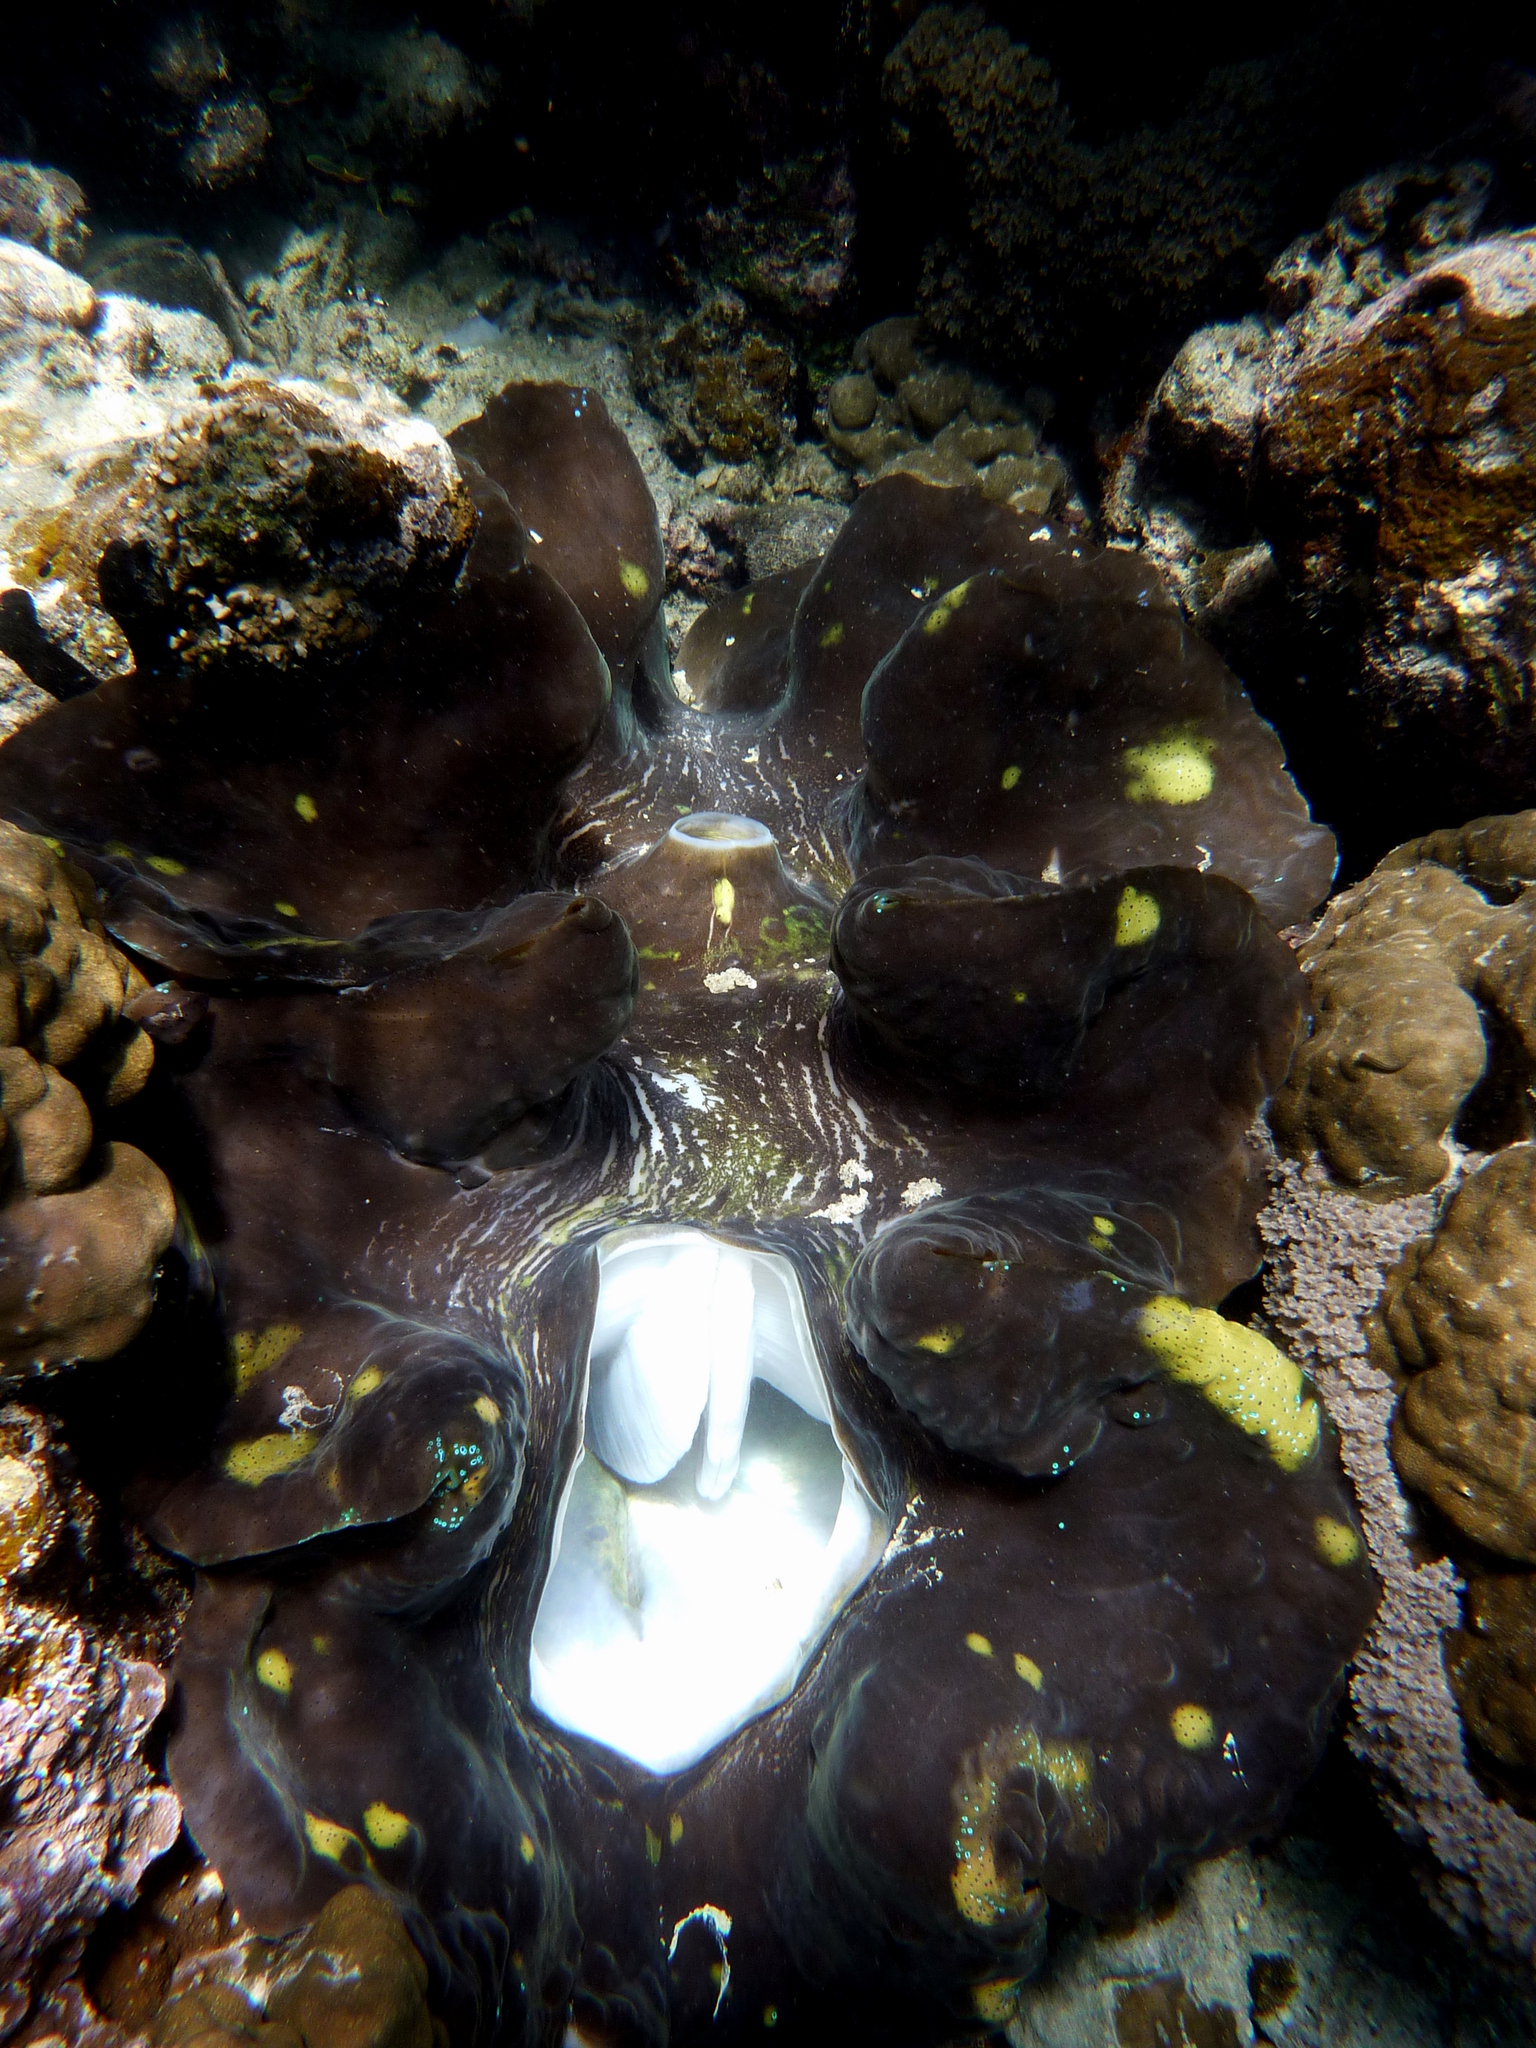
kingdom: Animalia
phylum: Mollusca
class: Bivalvia
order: Cardiida
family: Cardiidae
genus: Tridacna
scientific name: Tridacna gigas
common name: Giant clam
